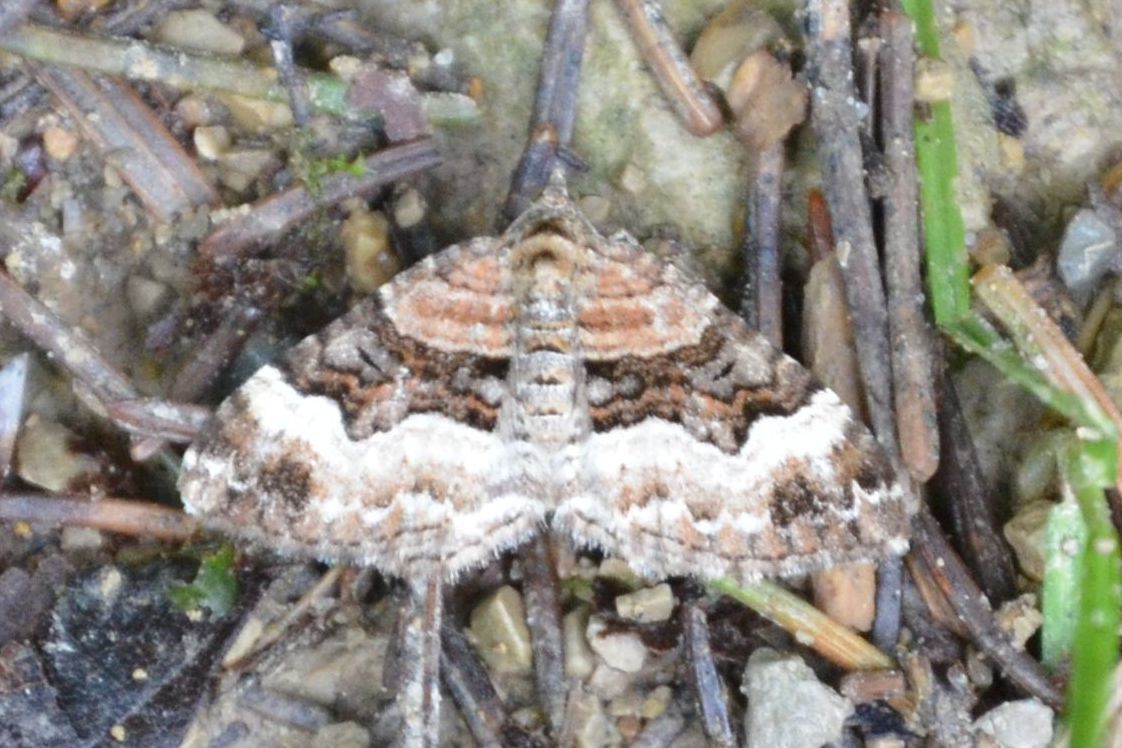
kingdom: Animalia
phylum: Arthropoda
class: Insecta
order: Lepidoptera
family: Geometridae
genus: Xanthorhoe
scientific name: Xanthorhoe biriviata
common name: Balsam carpet
